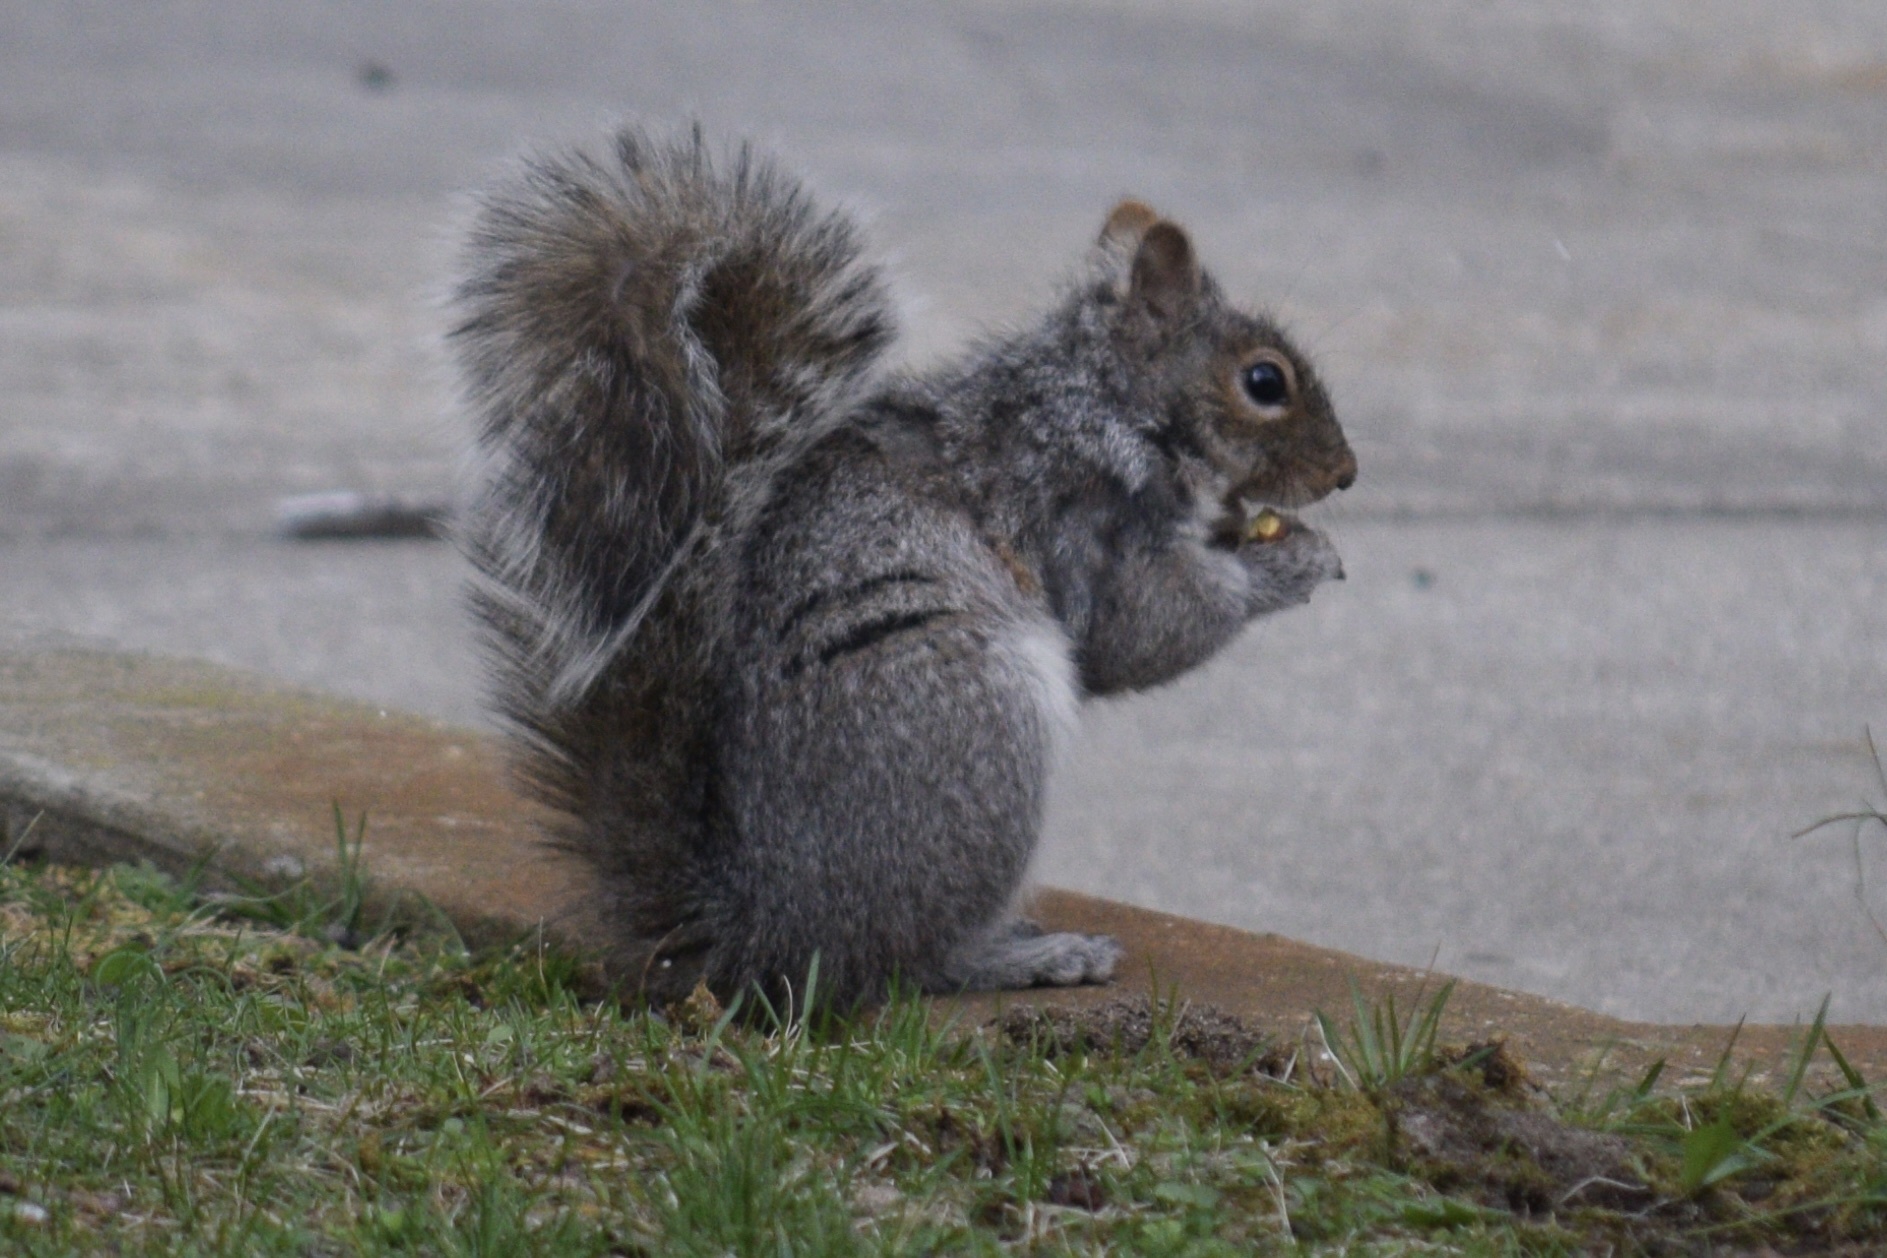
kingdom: Animalia
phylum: Chordata
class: Mammalia
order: Rodentia
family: Sciuridae
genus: Sciurus
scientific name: Sciurus carolinensis
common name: Eastern gray squirrel
